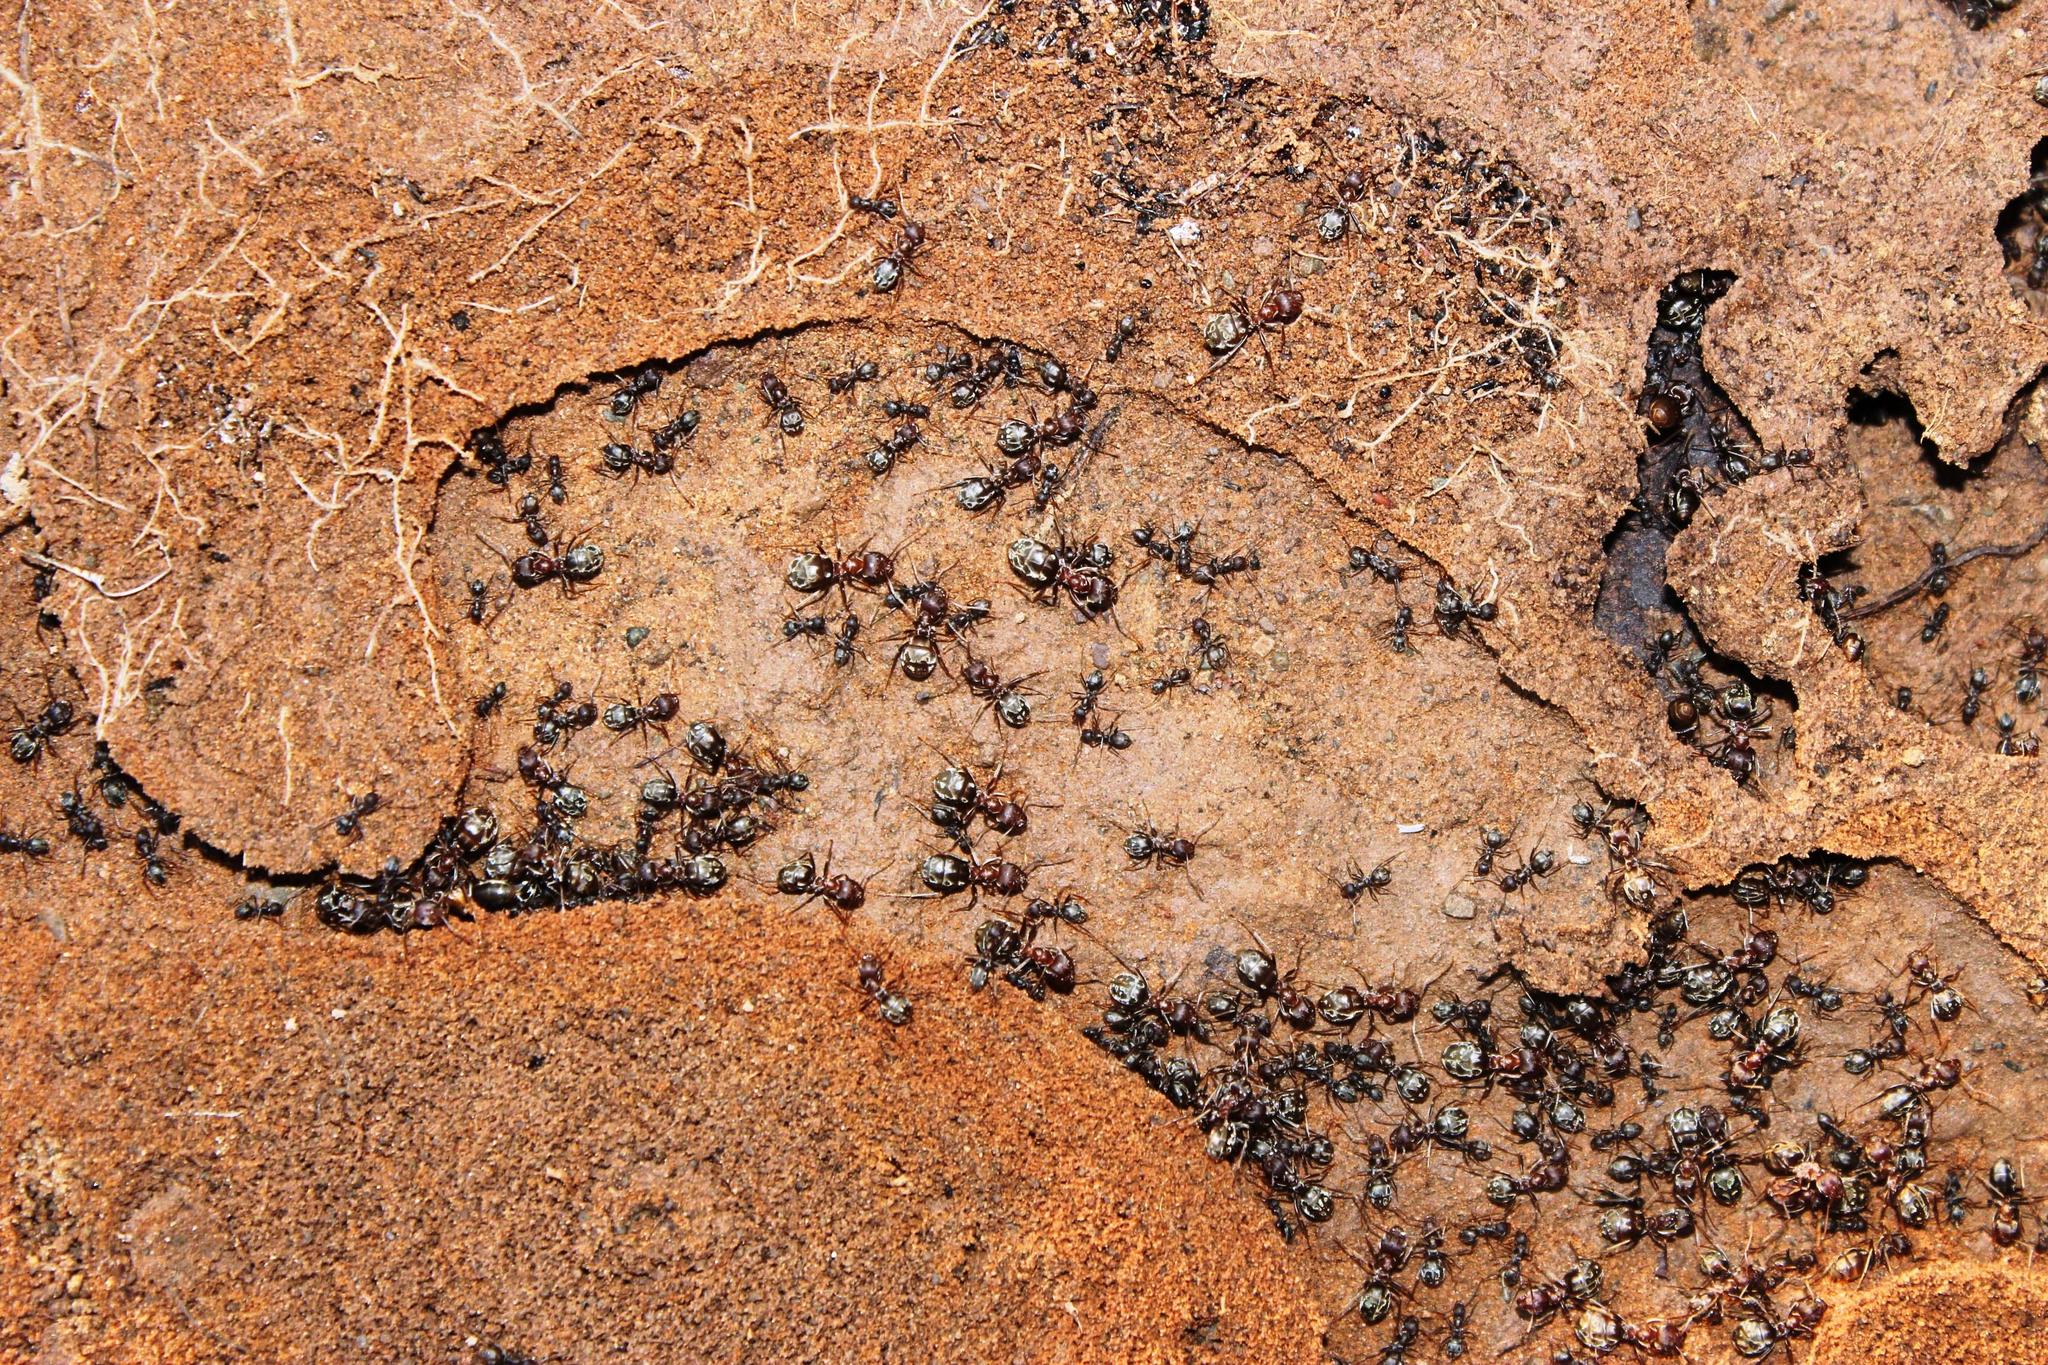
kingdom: Animalia
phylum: Arthropoda
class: Insecta
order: Hymenoptera
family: Formicidae
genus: Anoplolepis
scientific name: Anoplolepis custodiens
